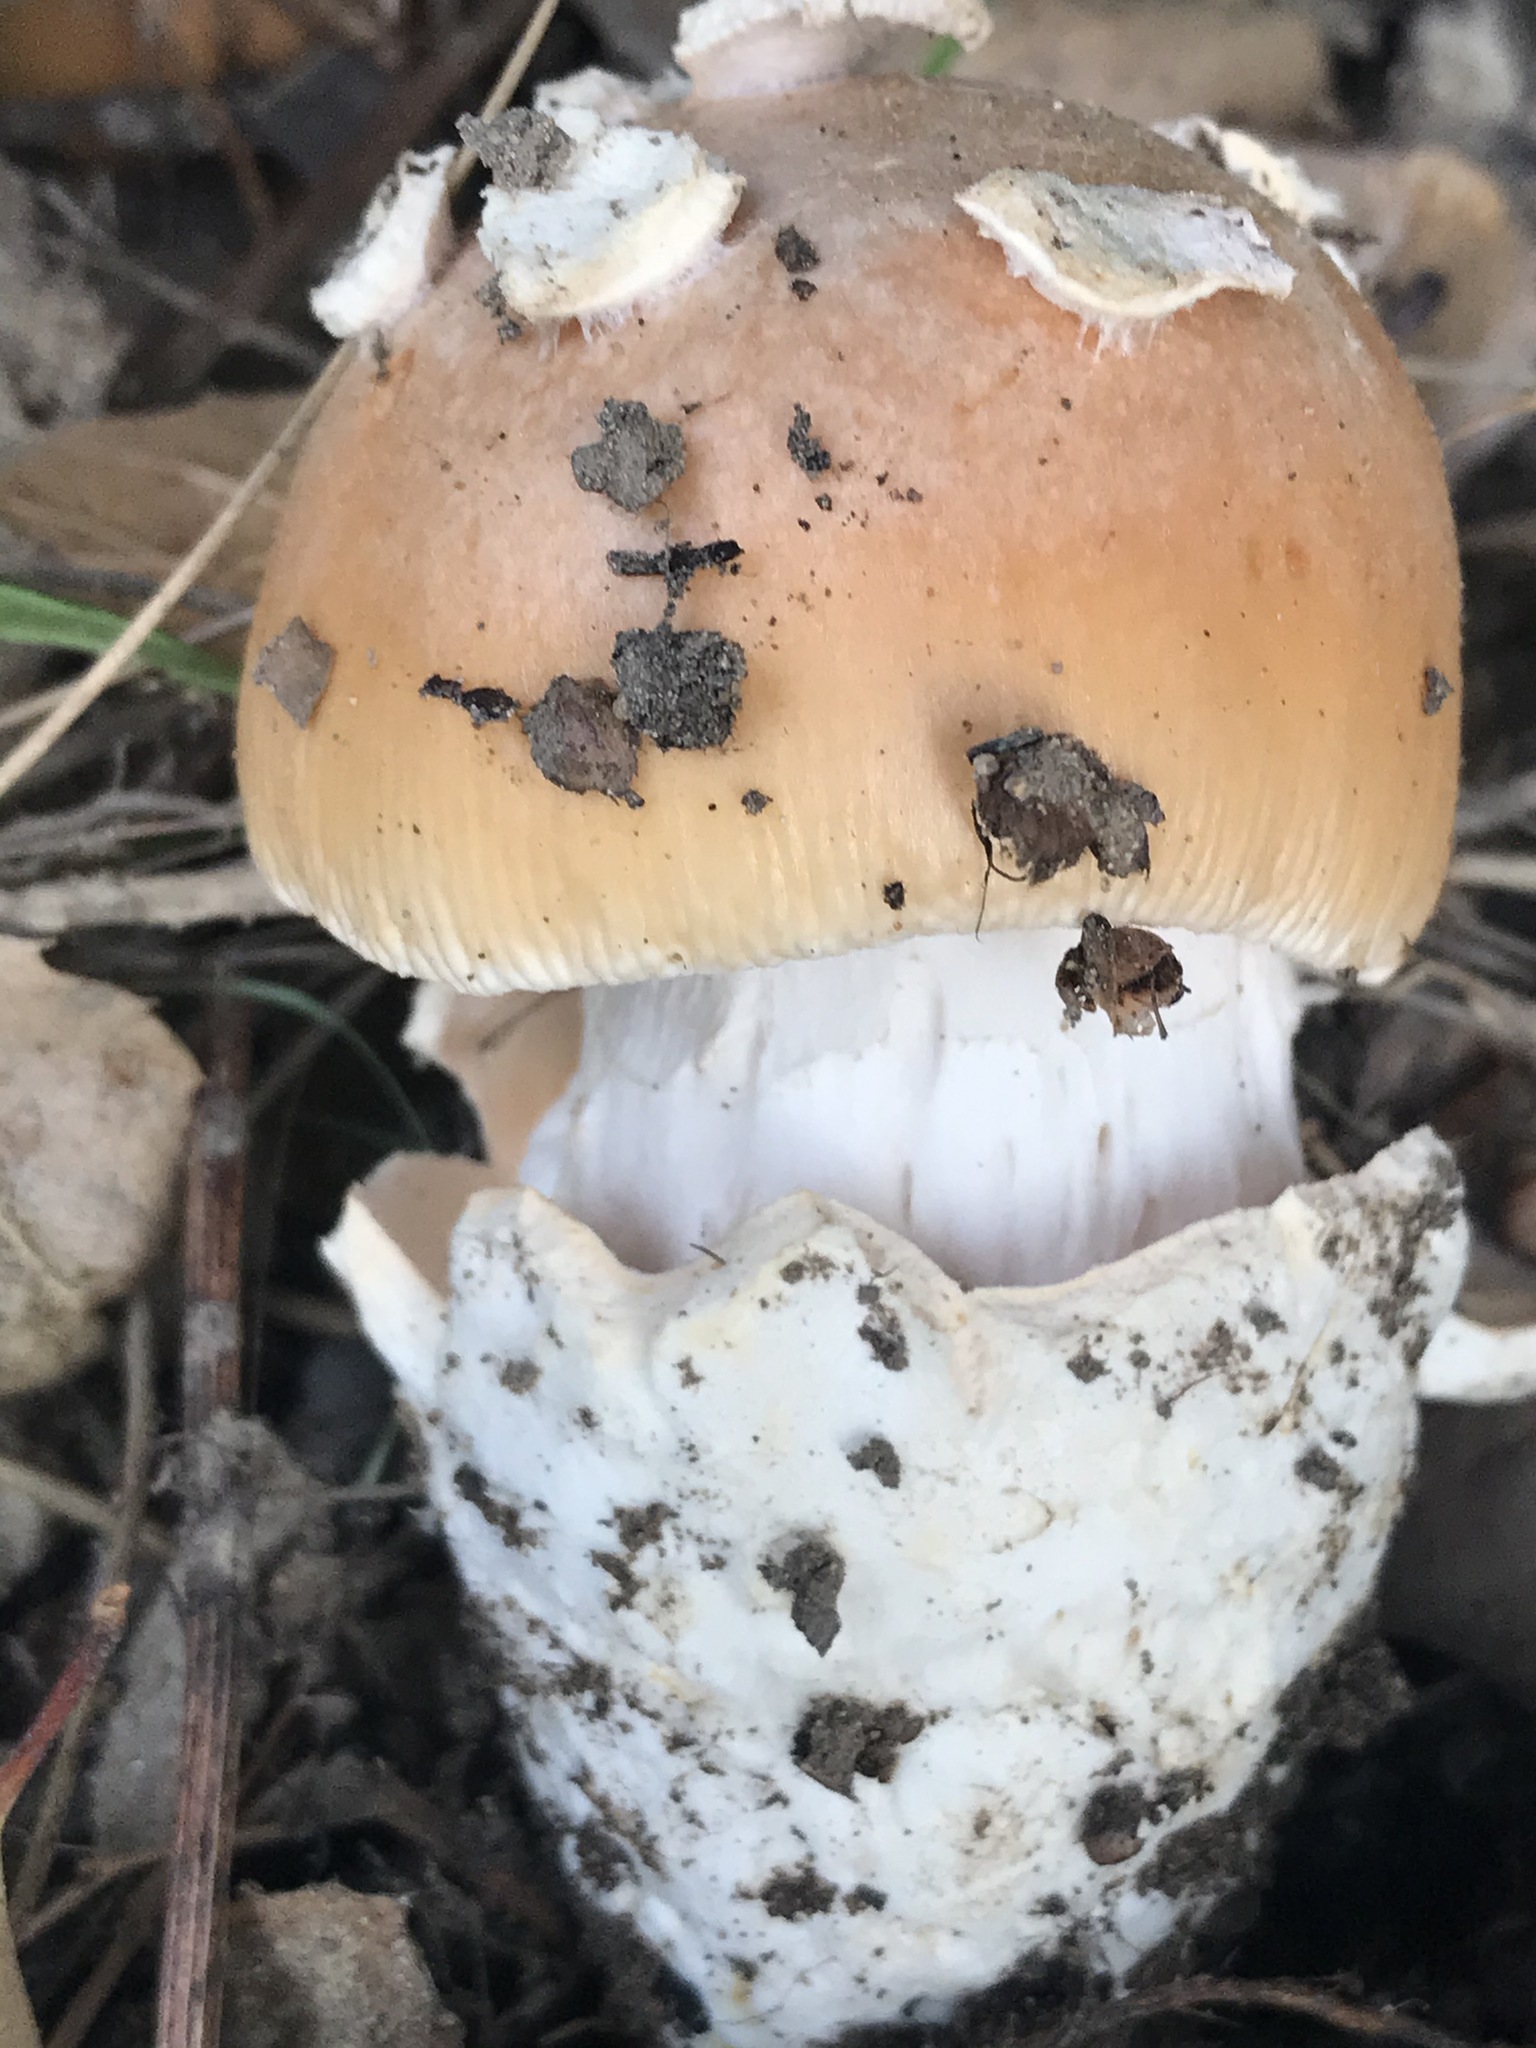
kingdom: Fungi
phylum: Basidiomycota
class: Agaricomycetes
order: Agaricales
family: Amanitaceae
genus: Amanita
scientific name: Amanita velosa
